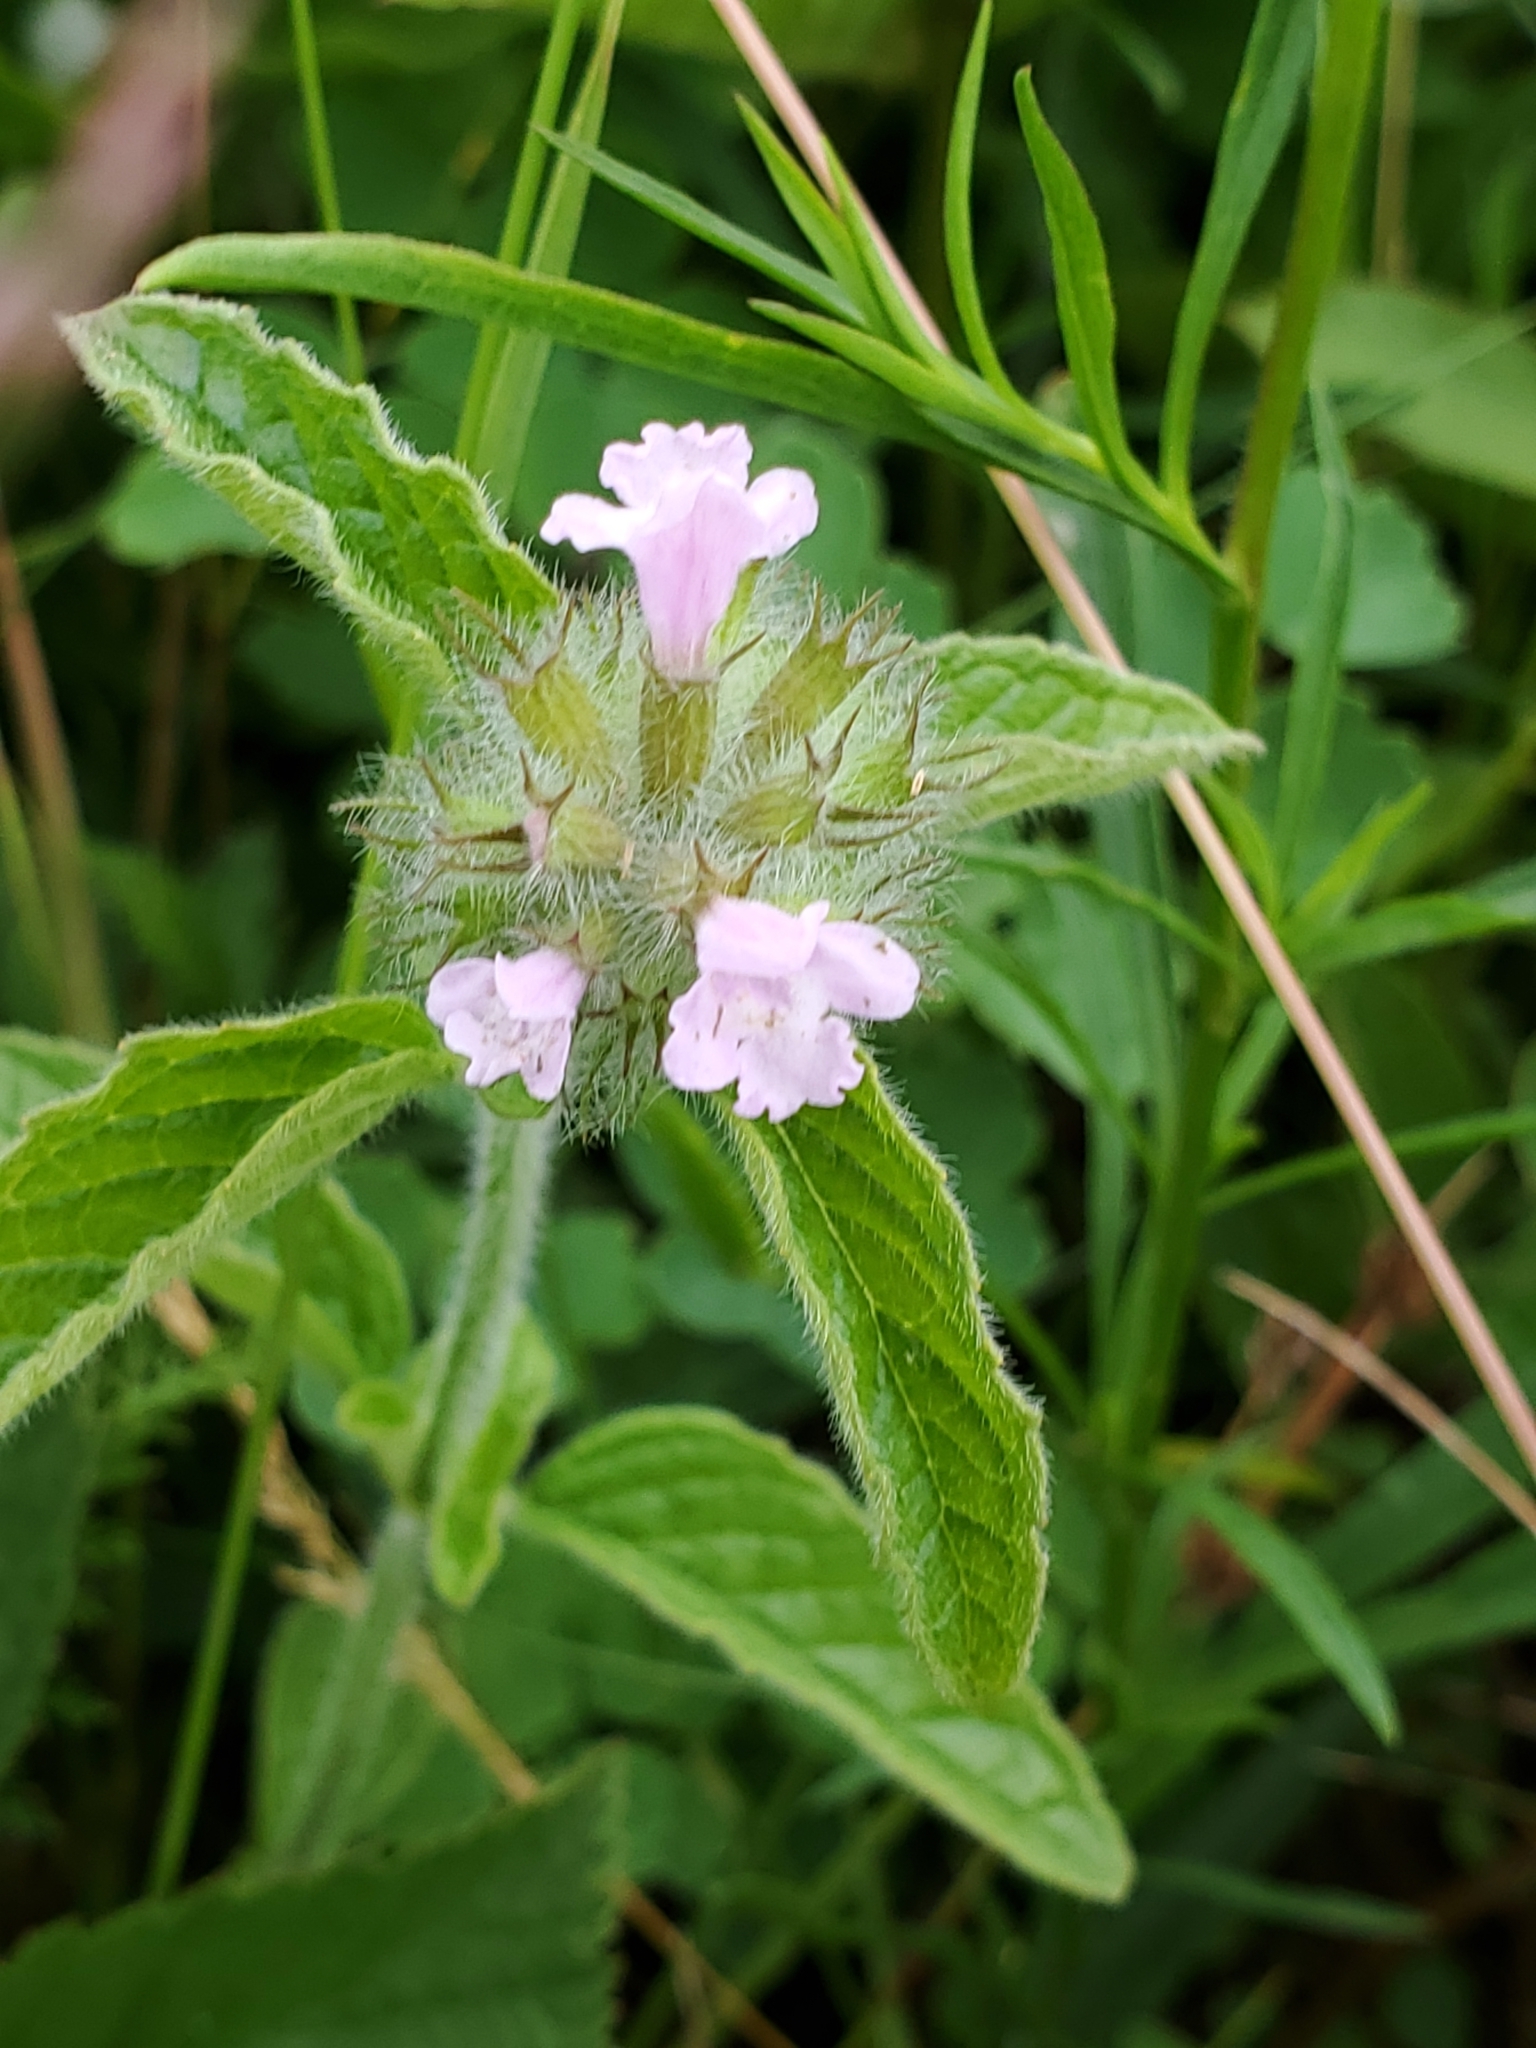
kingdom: Plantae
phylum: Tracheophyta
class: Magnoliopsida
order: Lamiales
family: Lamiaceae
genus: Clinopodium
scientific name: Clinopodium vulgare
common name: Wild basil
